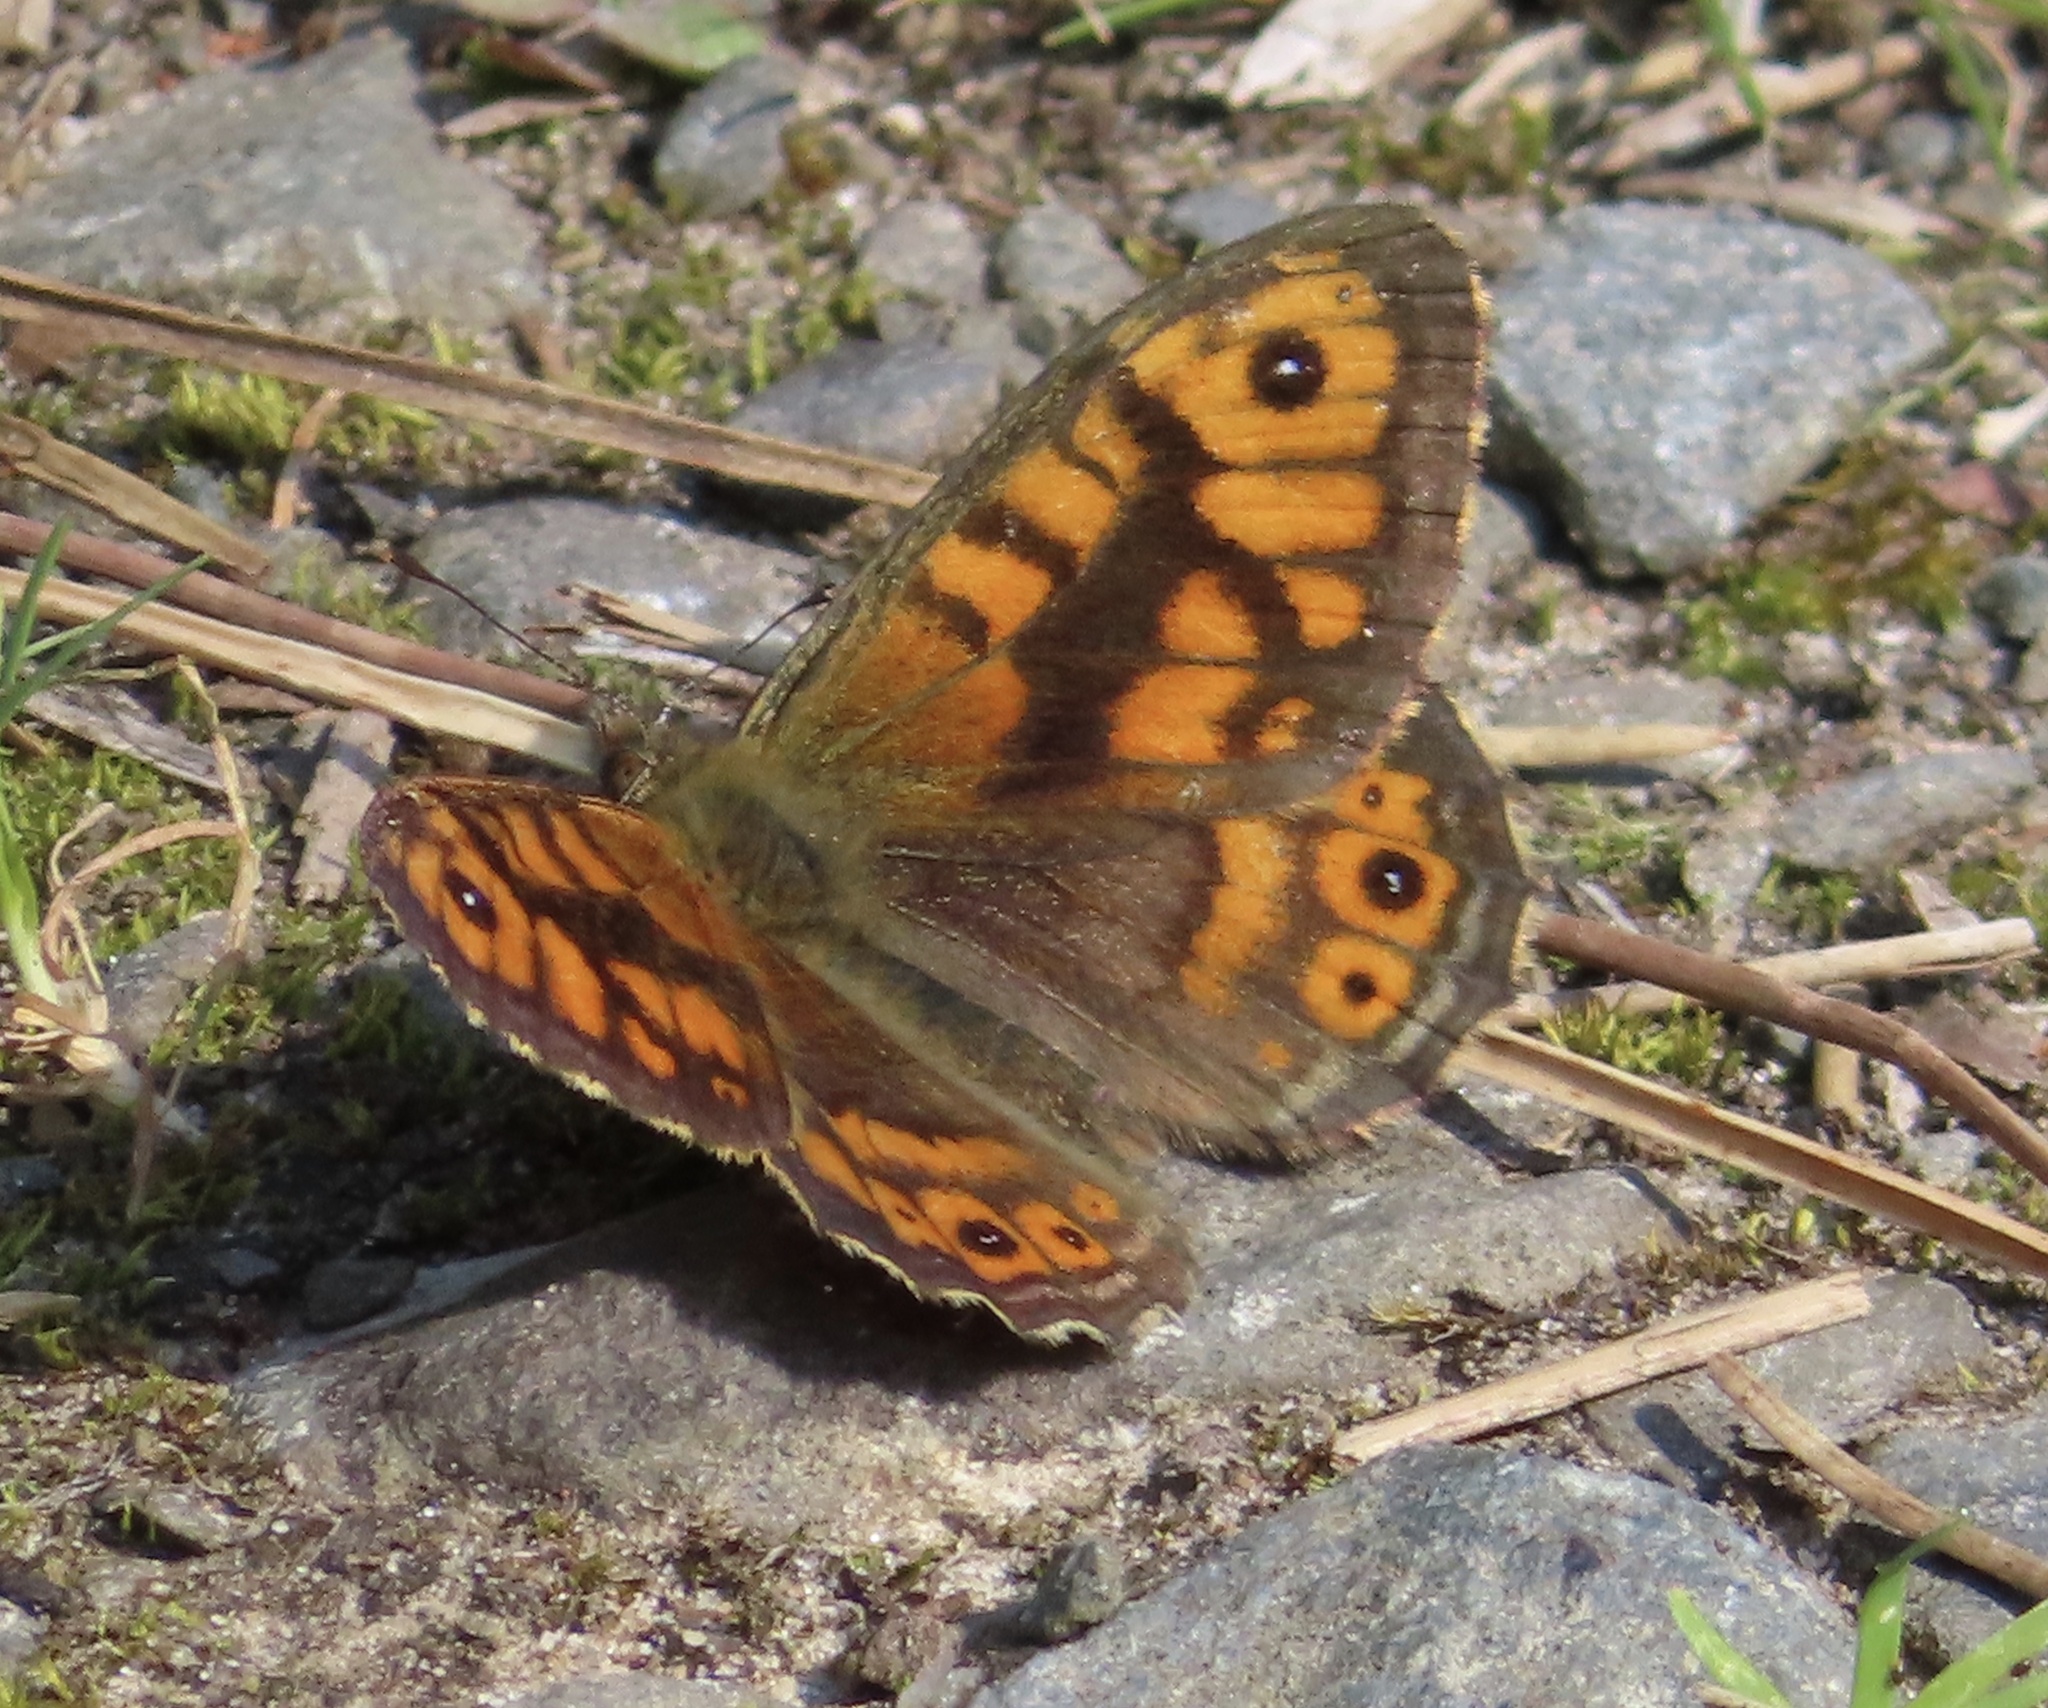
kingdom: Animalia
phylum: Arthropoda
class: Insecta
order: Lepidoptera
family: Nymphalidae
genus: Pararge
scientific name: Pararge Lasiommata megera
